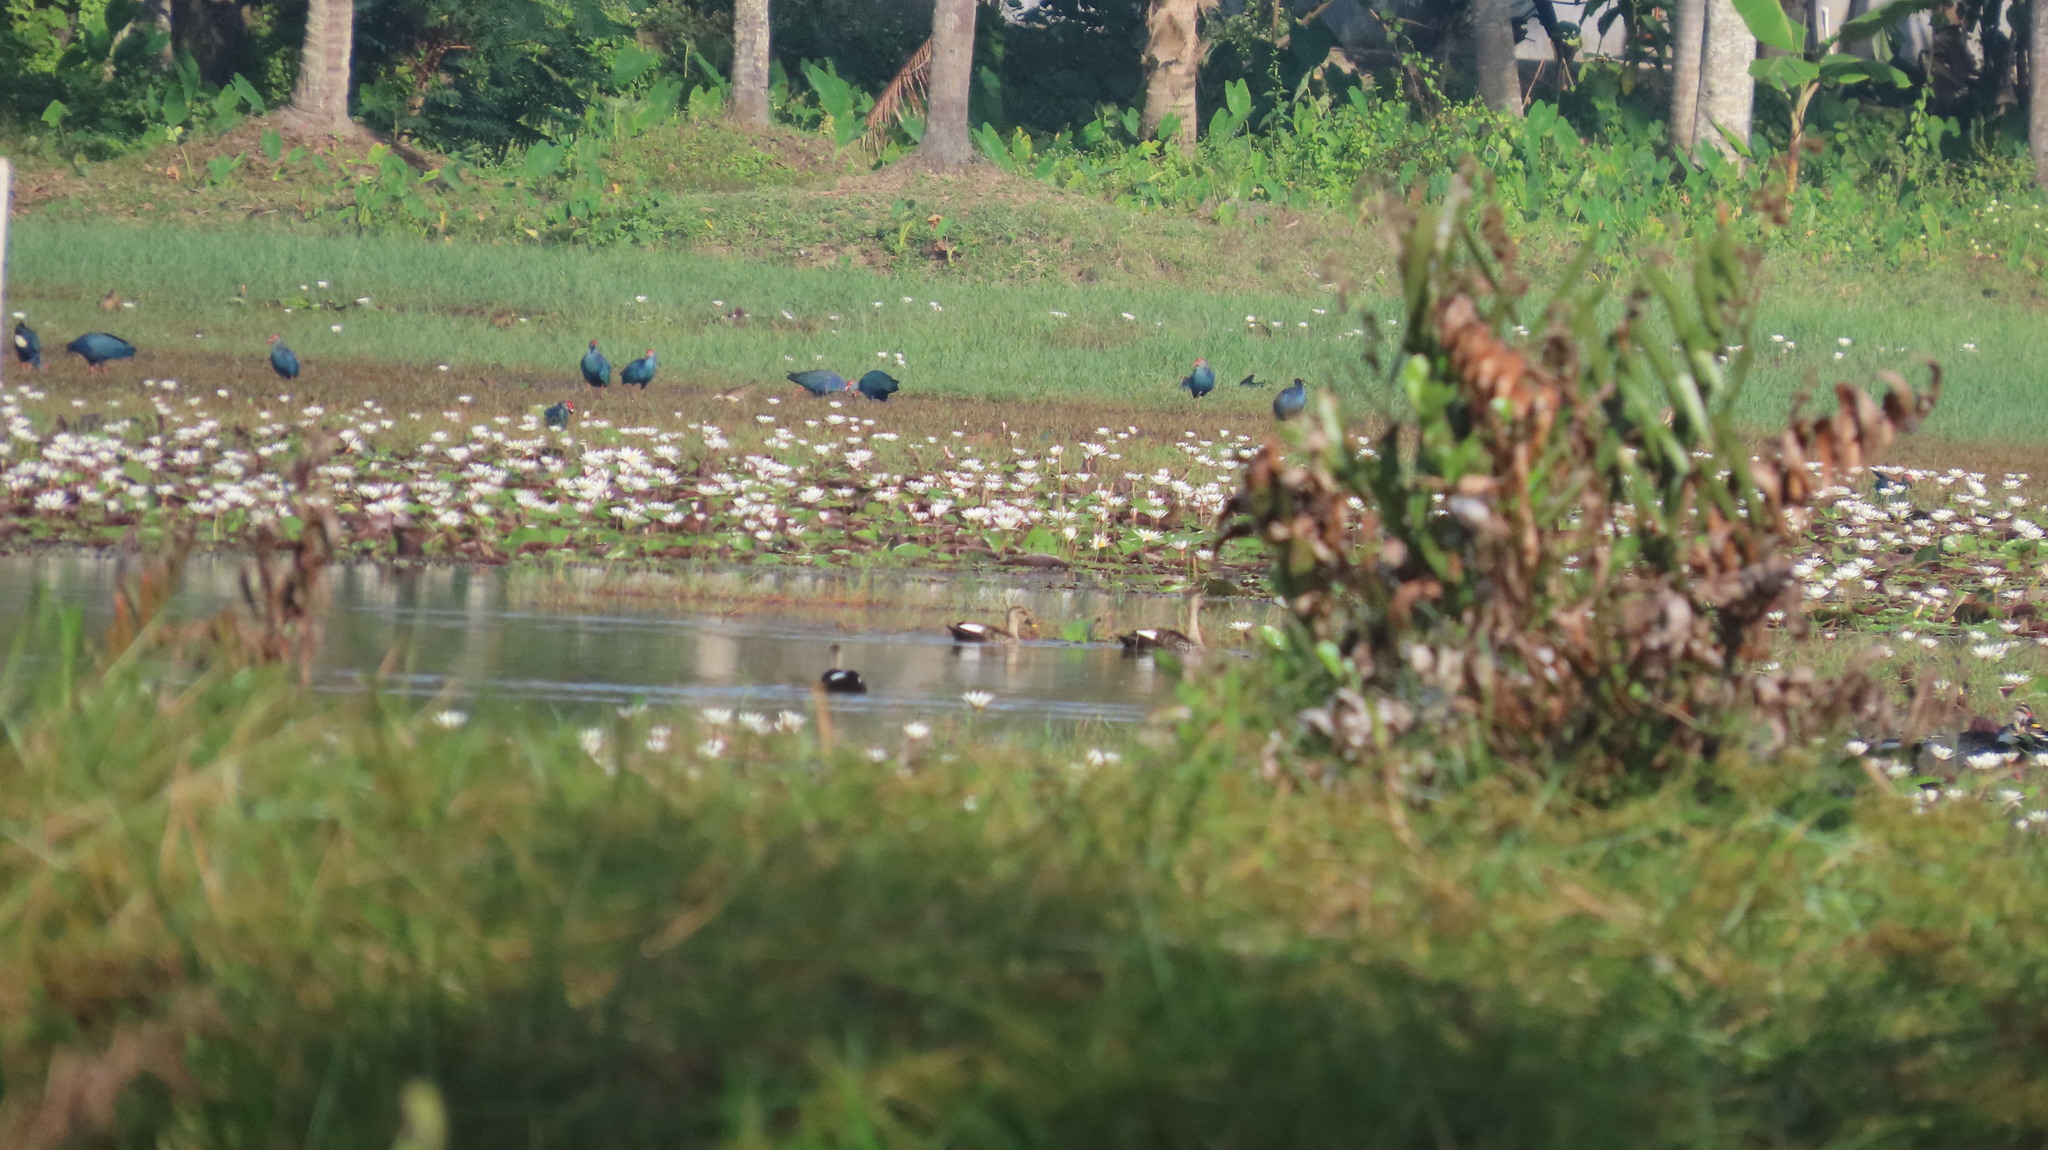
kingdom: Animalia
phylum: Chordata
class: Aves
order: Gruiformes
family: Rallidae
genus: Porphyrio
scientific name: Porphyrio porphyrio
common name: Purple swamphen
